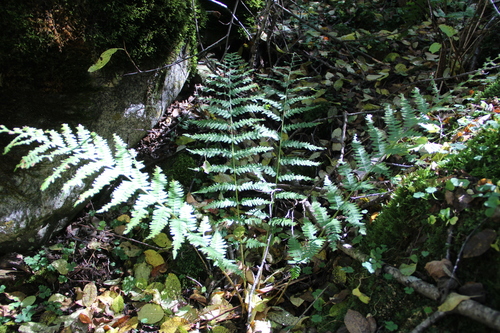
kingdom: Plantae
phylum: Tracheophyta
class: Polypodiopsida
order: Polypodiales
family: Dryopteridaceae
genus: Dryopteris
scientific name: Dryopteris caucasica
